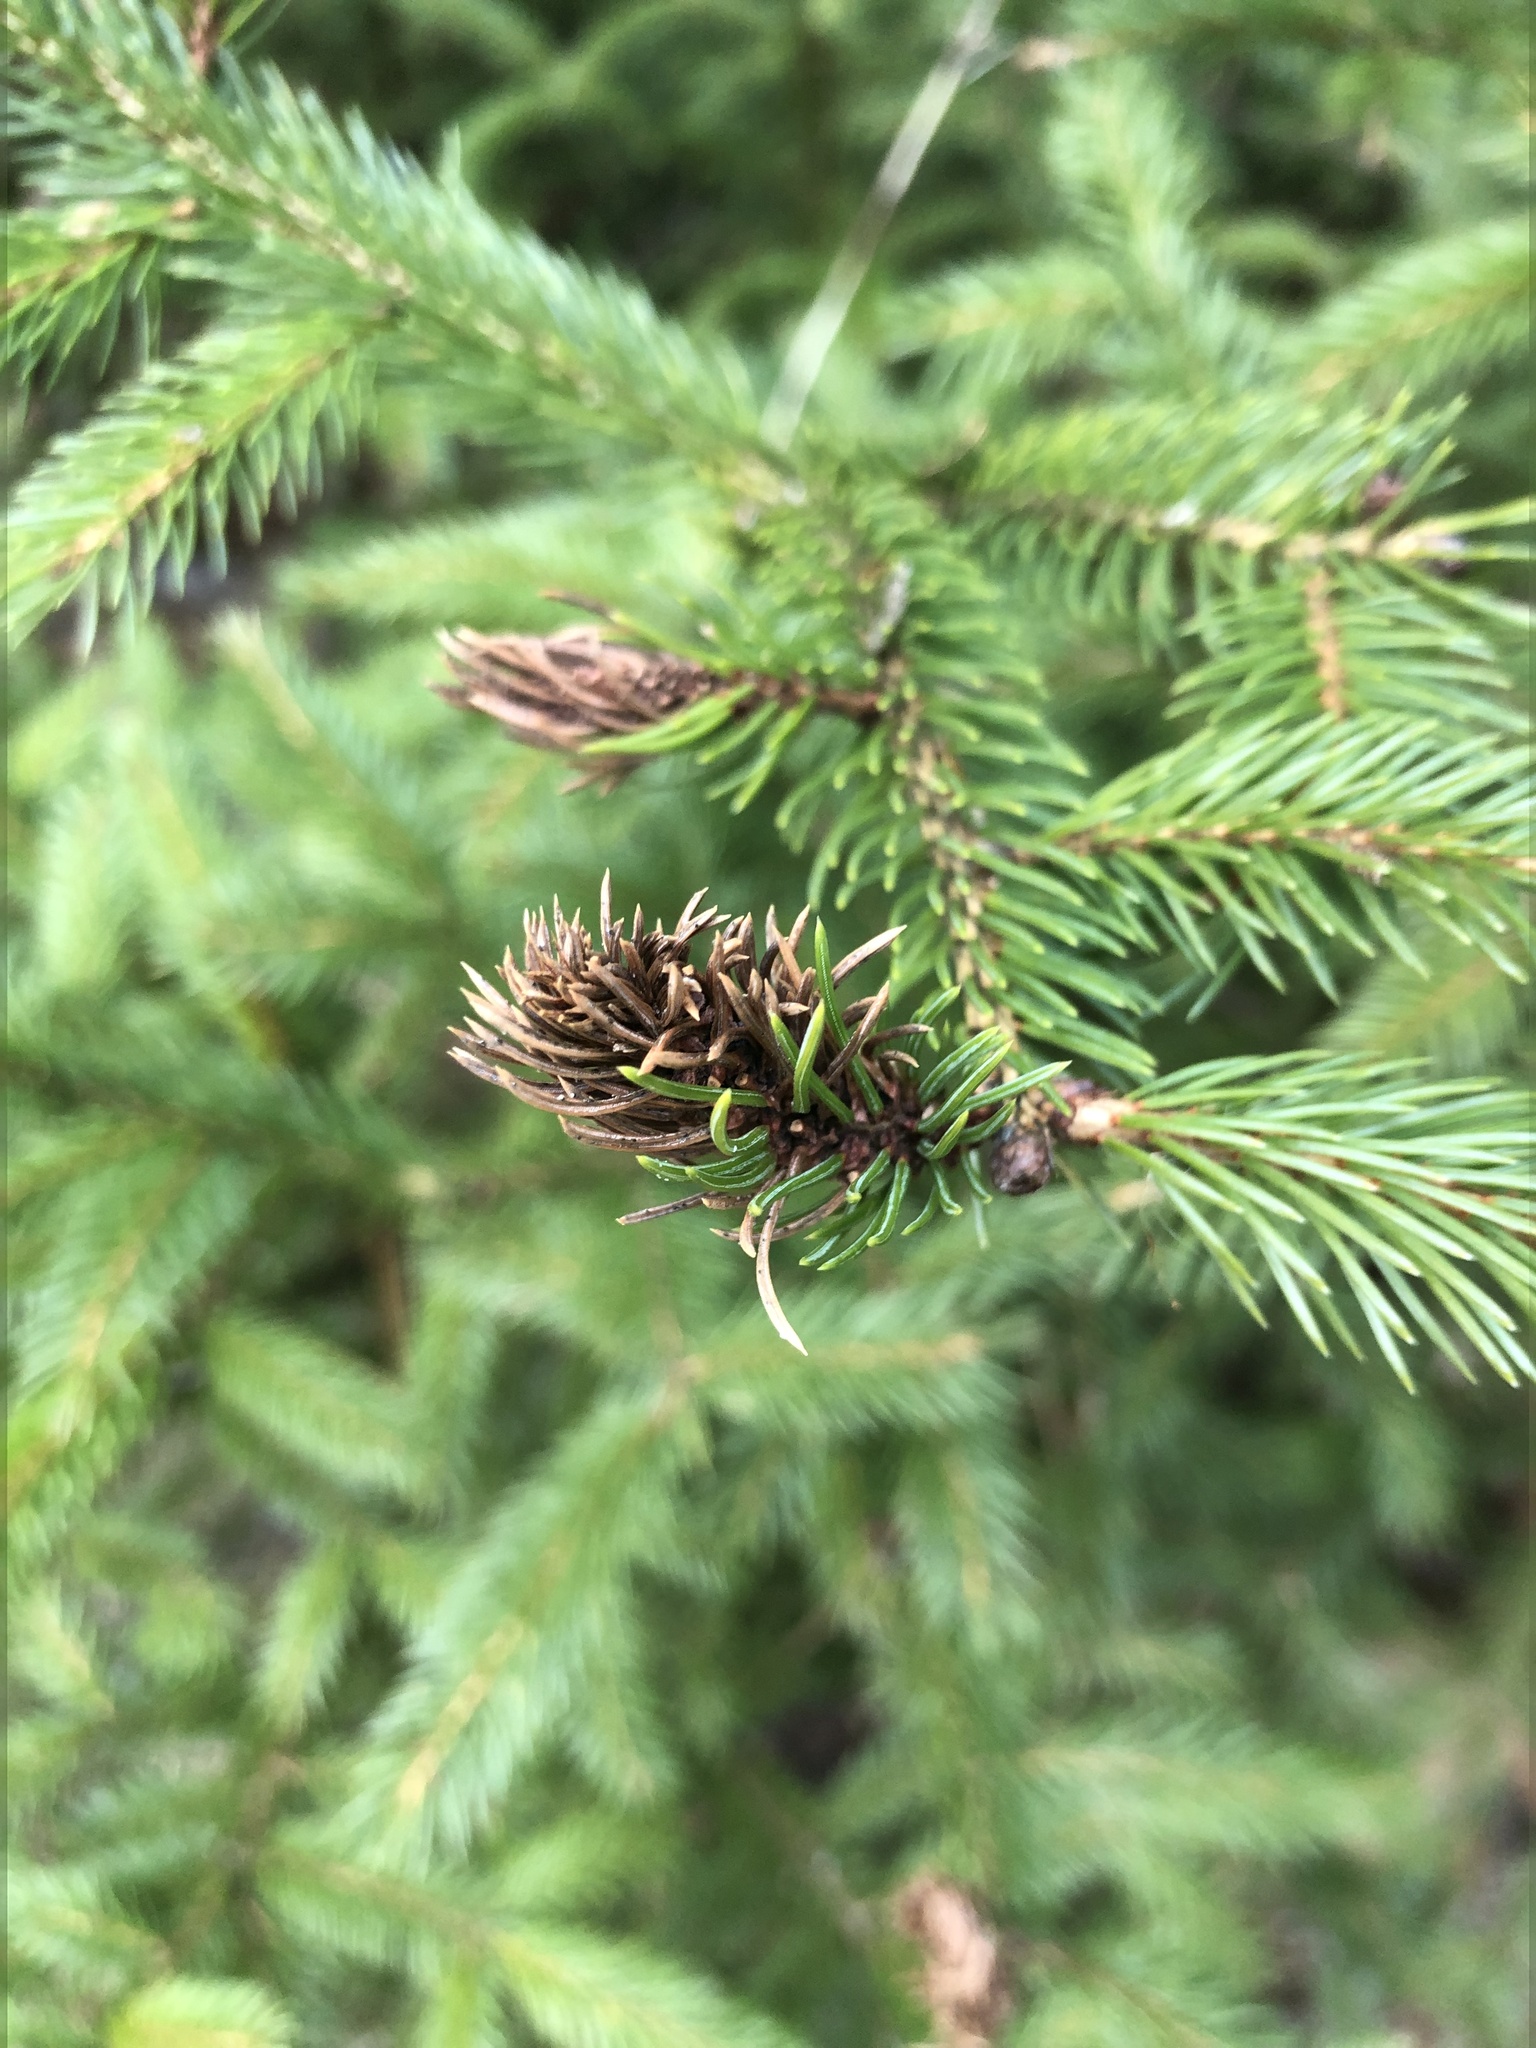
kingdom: Animalia
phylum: Arthropoda
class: Insecta
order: Hemiptera
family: Adelgidae
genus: Adelges
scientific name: Adelges abietis
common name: Eastern spruce gall adelgid
